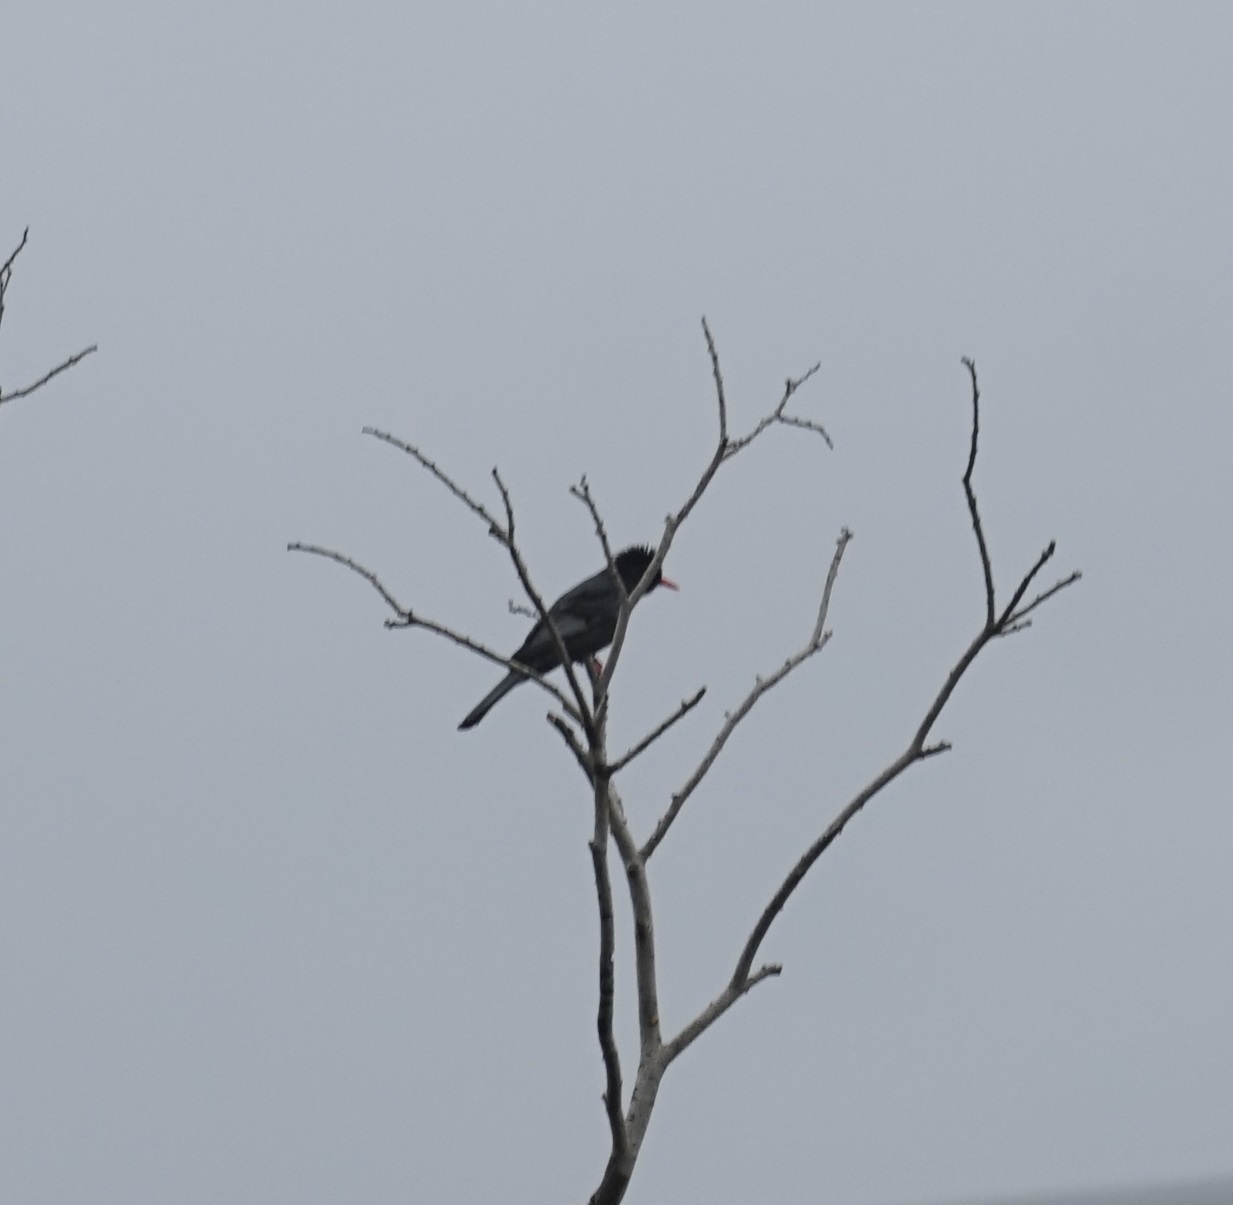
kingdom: Animalia
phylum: Chordata
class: Aves
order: Passeriformes
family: Pycnonotidae
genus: Hypsipetes
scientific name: Hypsipetes leucocephalus
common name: Black bulbul
